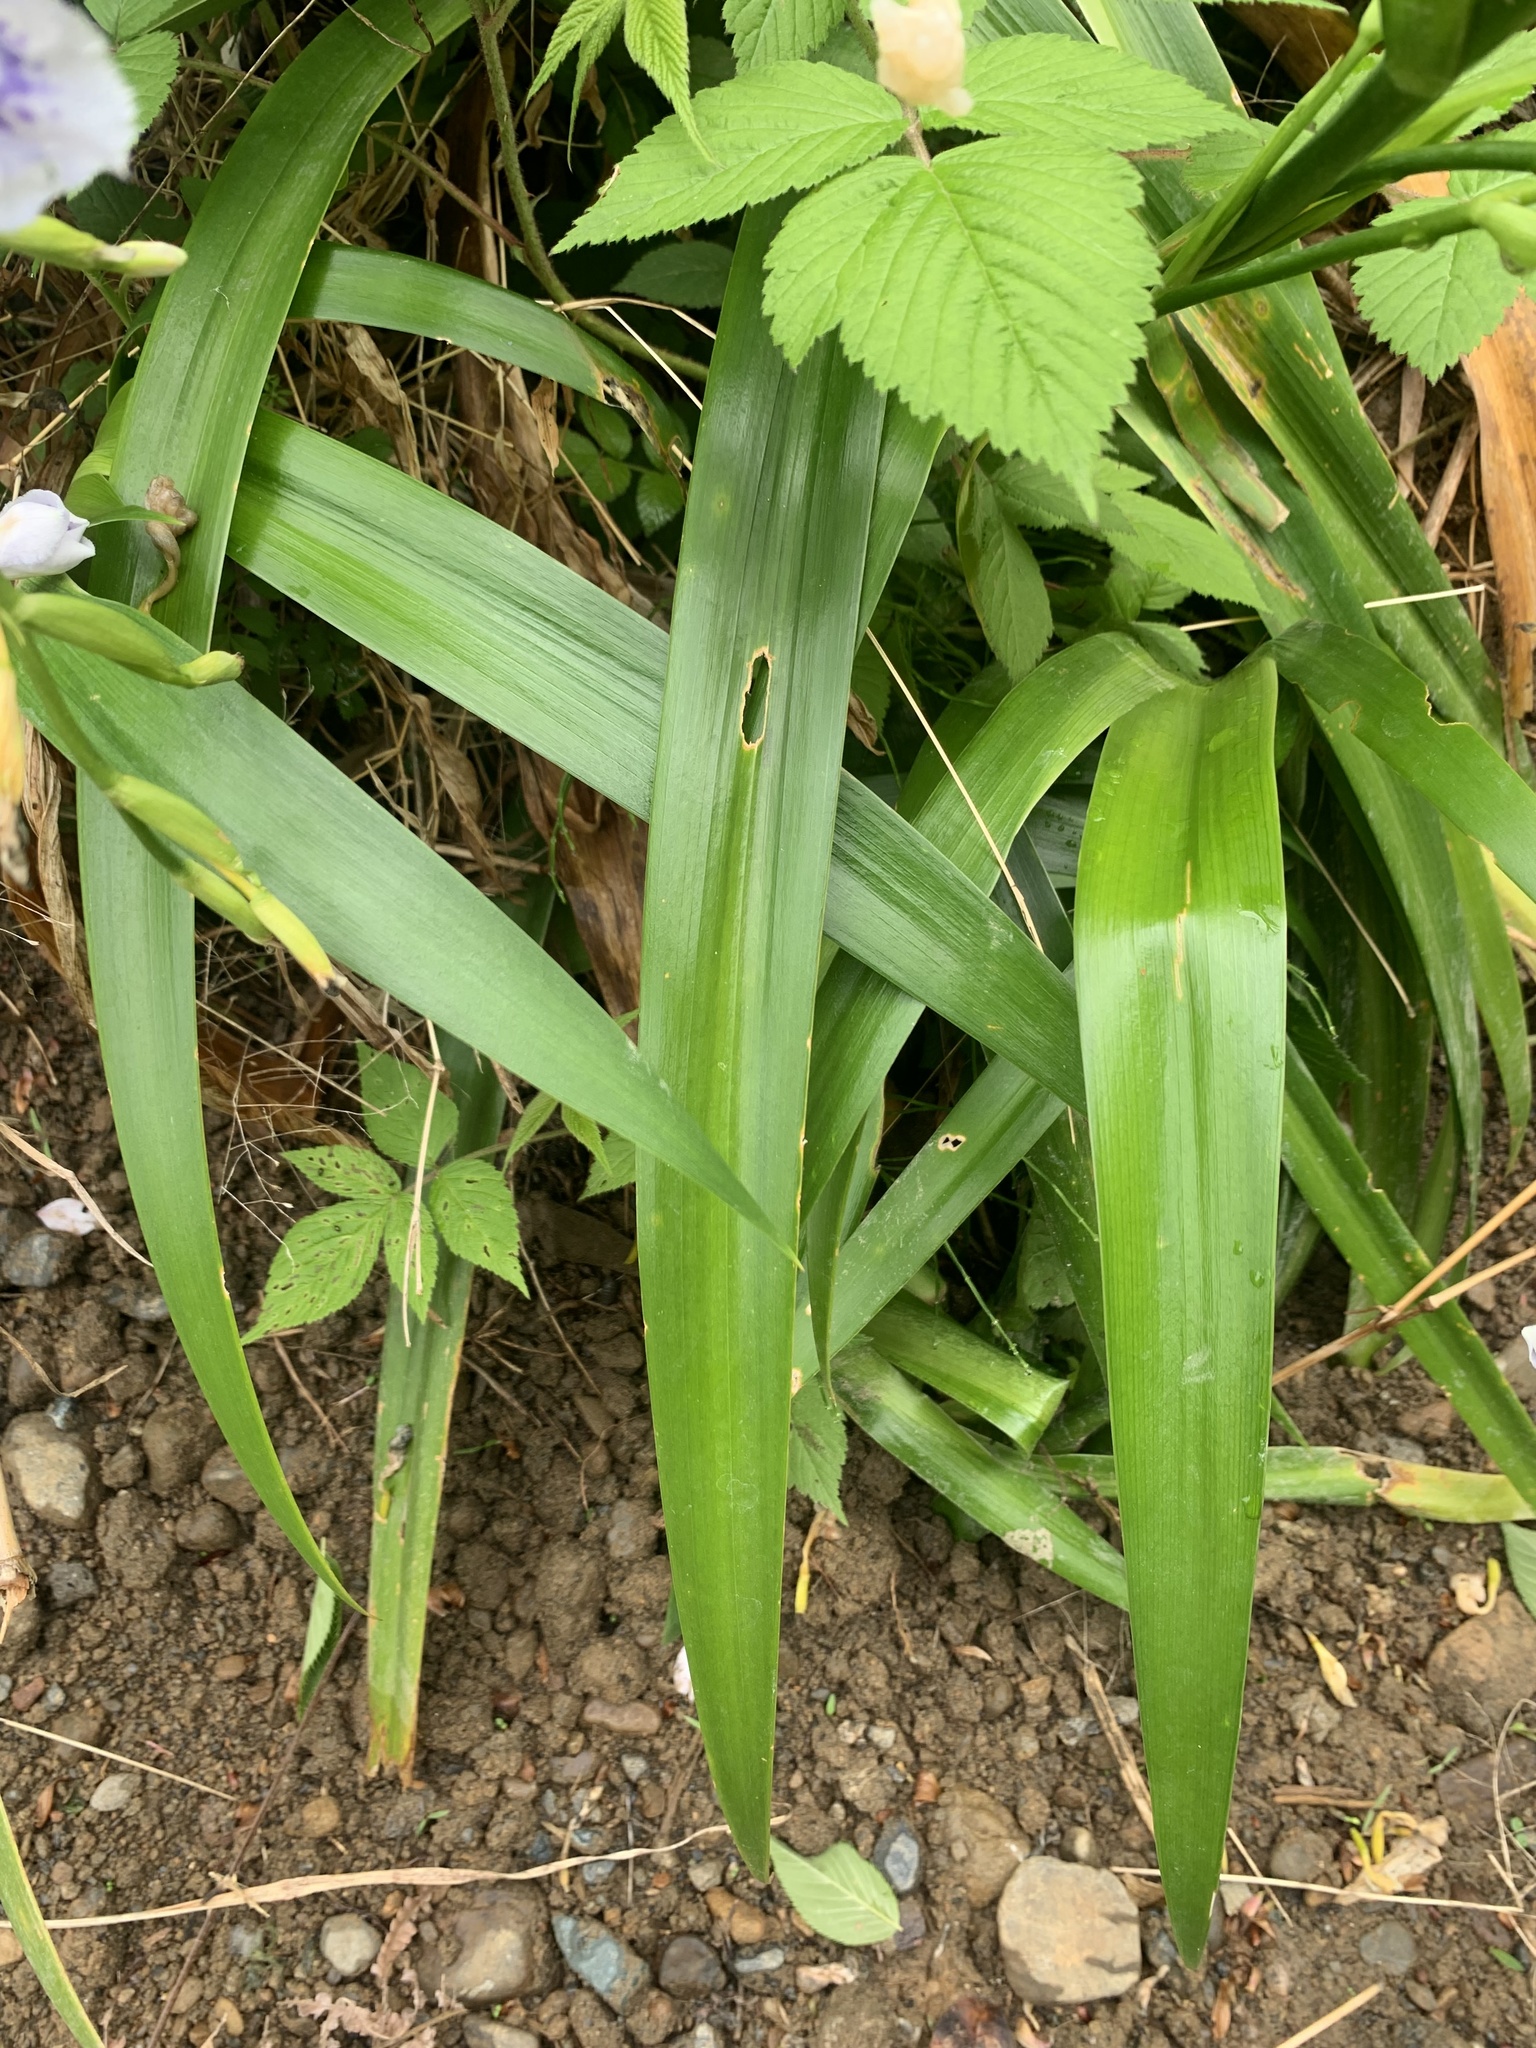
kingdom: Plantae
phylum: Tracheophyta
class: Liliopsida
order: Asparagales
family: Iridaceae
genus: Iris
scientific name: Iris japonica
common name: Butterfly-flower
